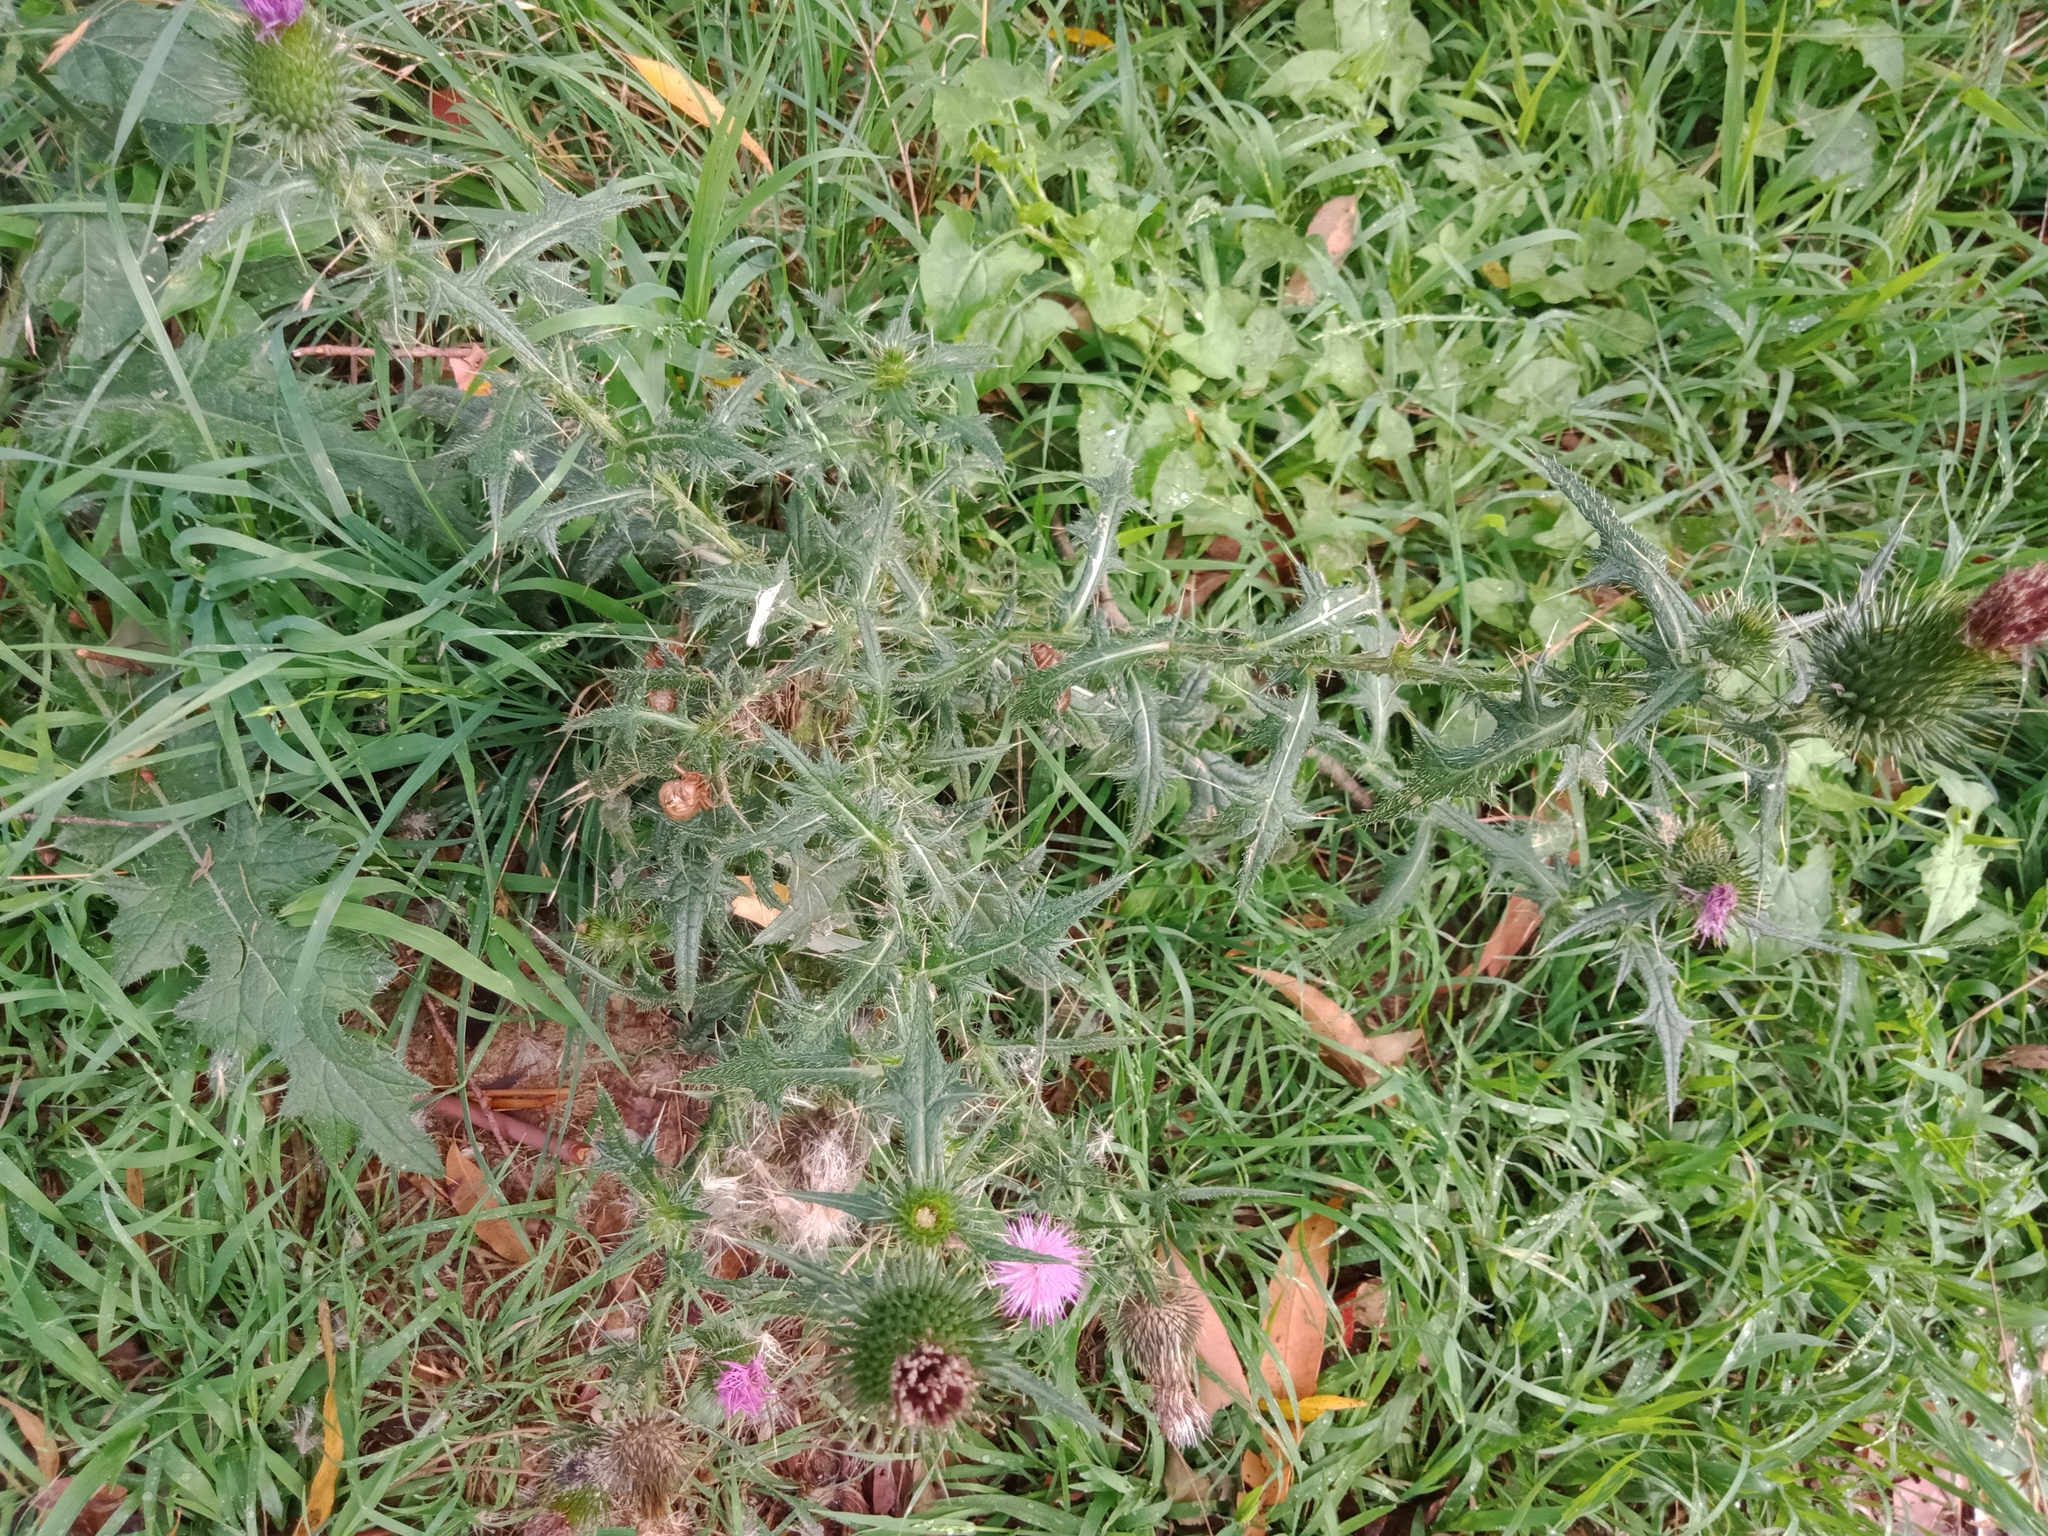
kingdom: Plantae
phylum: Tracheophyta
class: Magnoliopsida
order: Asterales
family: Asteraceae
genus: Cirsium
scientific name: Cirsium vulgare
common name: Bull thistle
